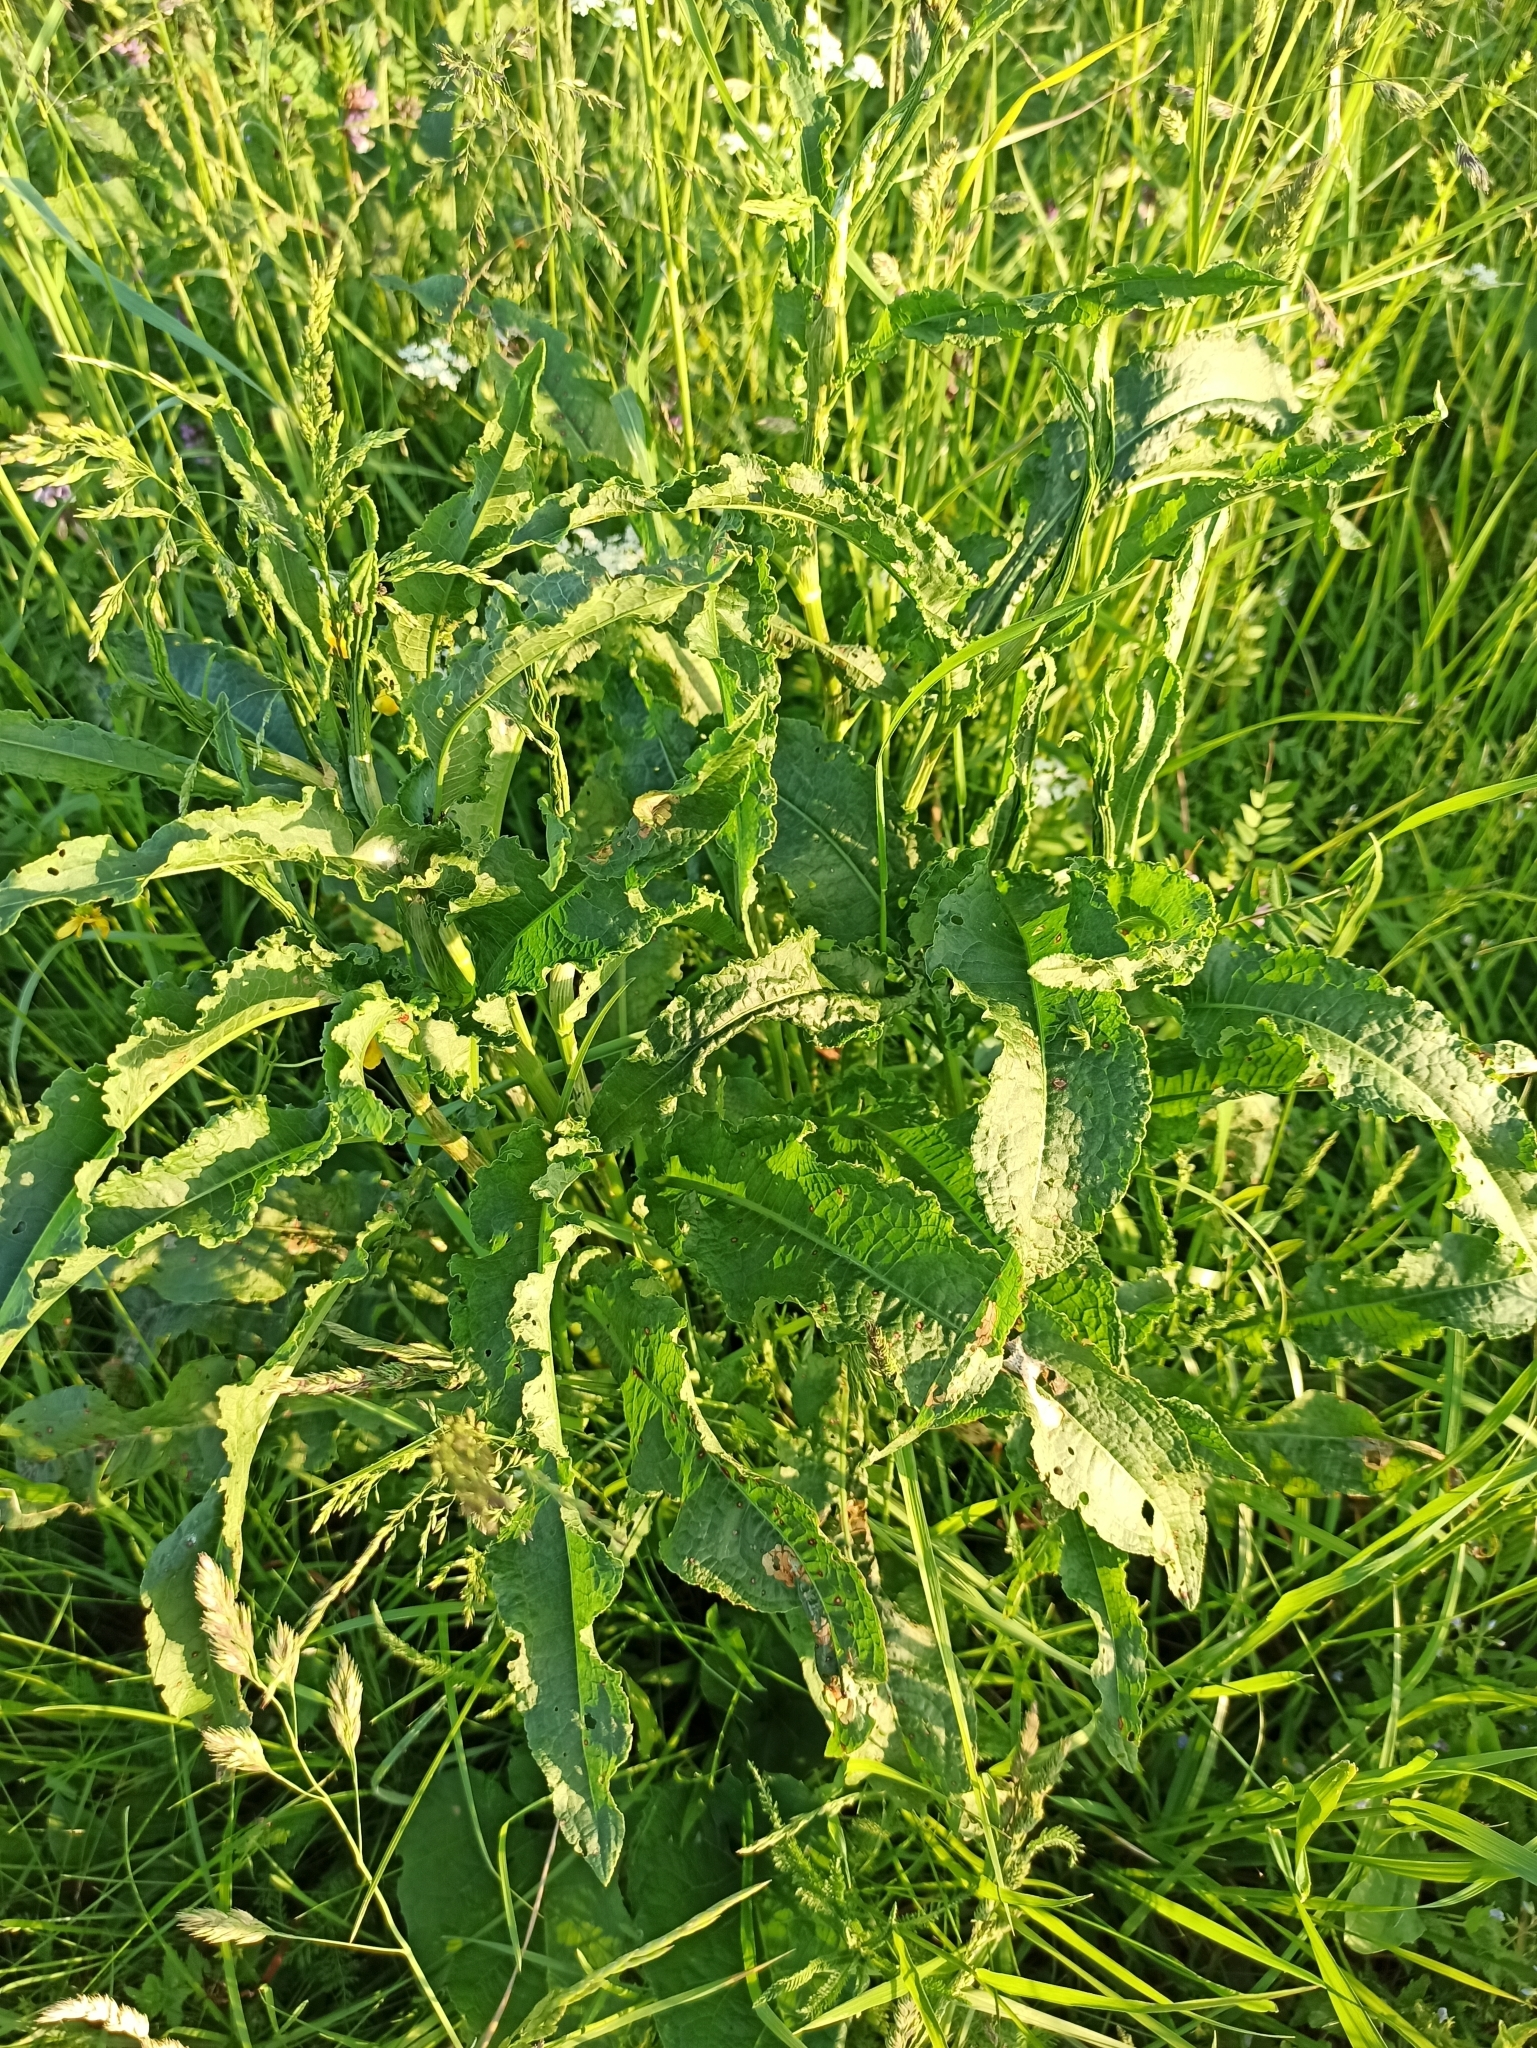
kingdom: Plantae
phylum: Tracheophyta
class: Magnoliopsida
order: Caryophyllales
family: Polygonaceae
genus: Rumex
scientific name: Rumex crispus
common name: Curled dock
